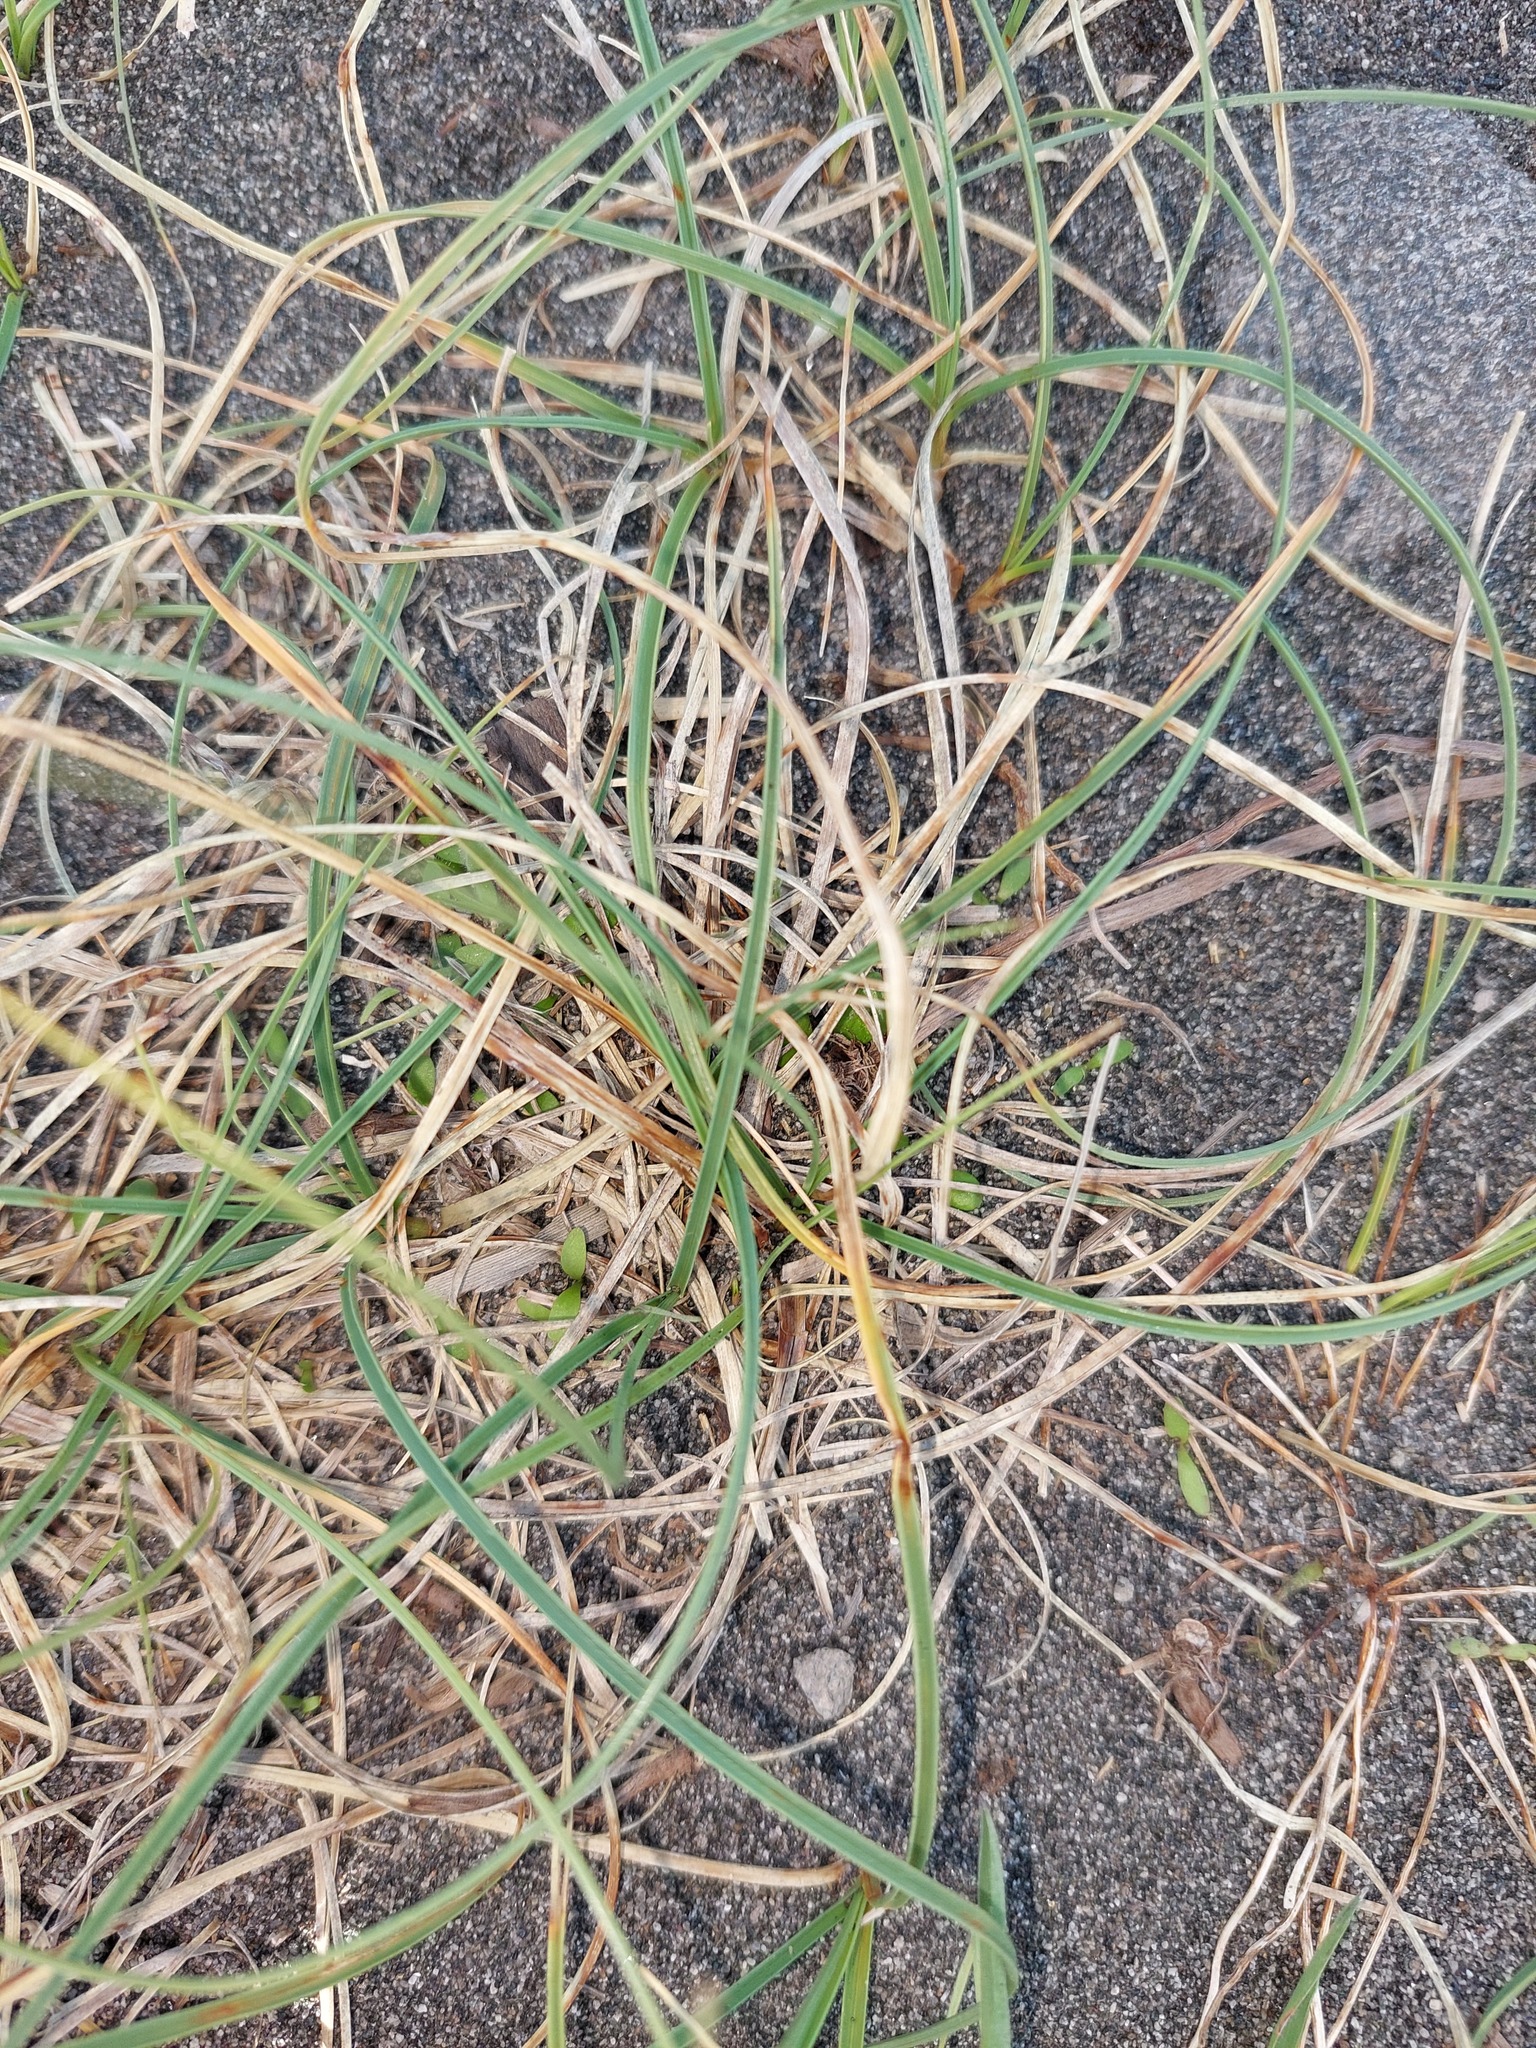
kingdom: Plantae
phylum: Tracheophyta
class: Liliopsida
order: Poales
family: Cyperaceae
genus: Carex
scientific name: Carex pumila
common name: Dwarf sedge
